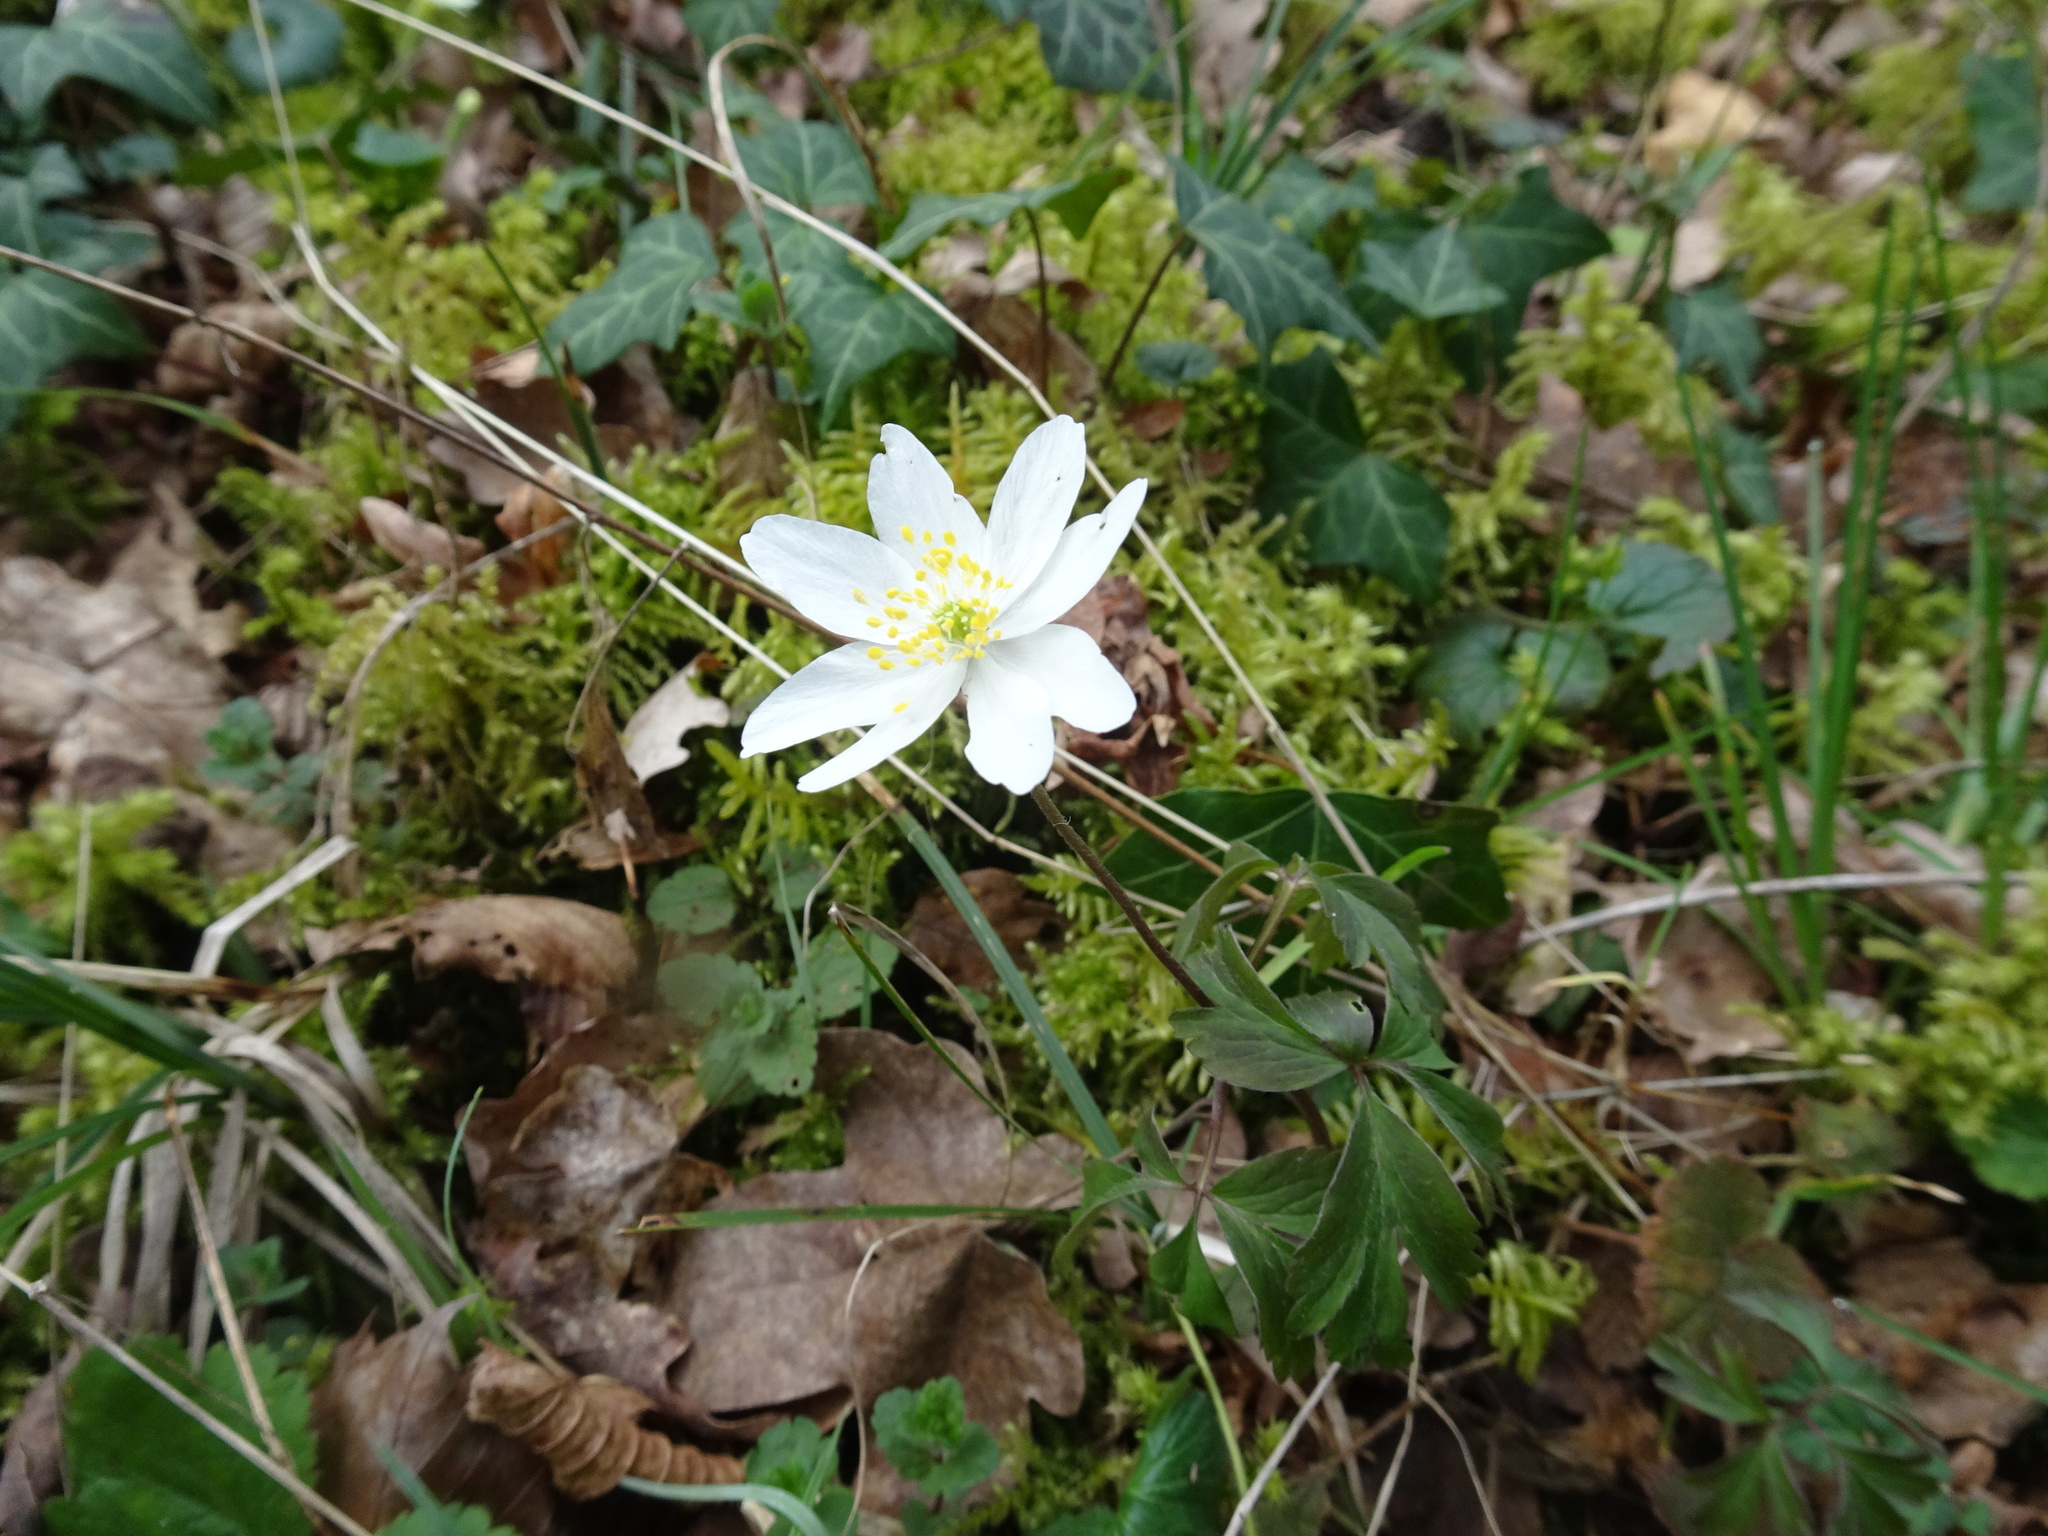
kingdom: Plantae
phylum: Tracheophyta
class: Magnoliopsida
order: Ranunculales
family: Ranunculaceae
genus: Anemone
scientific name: Anemone nemorosa
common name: Wood anemone
